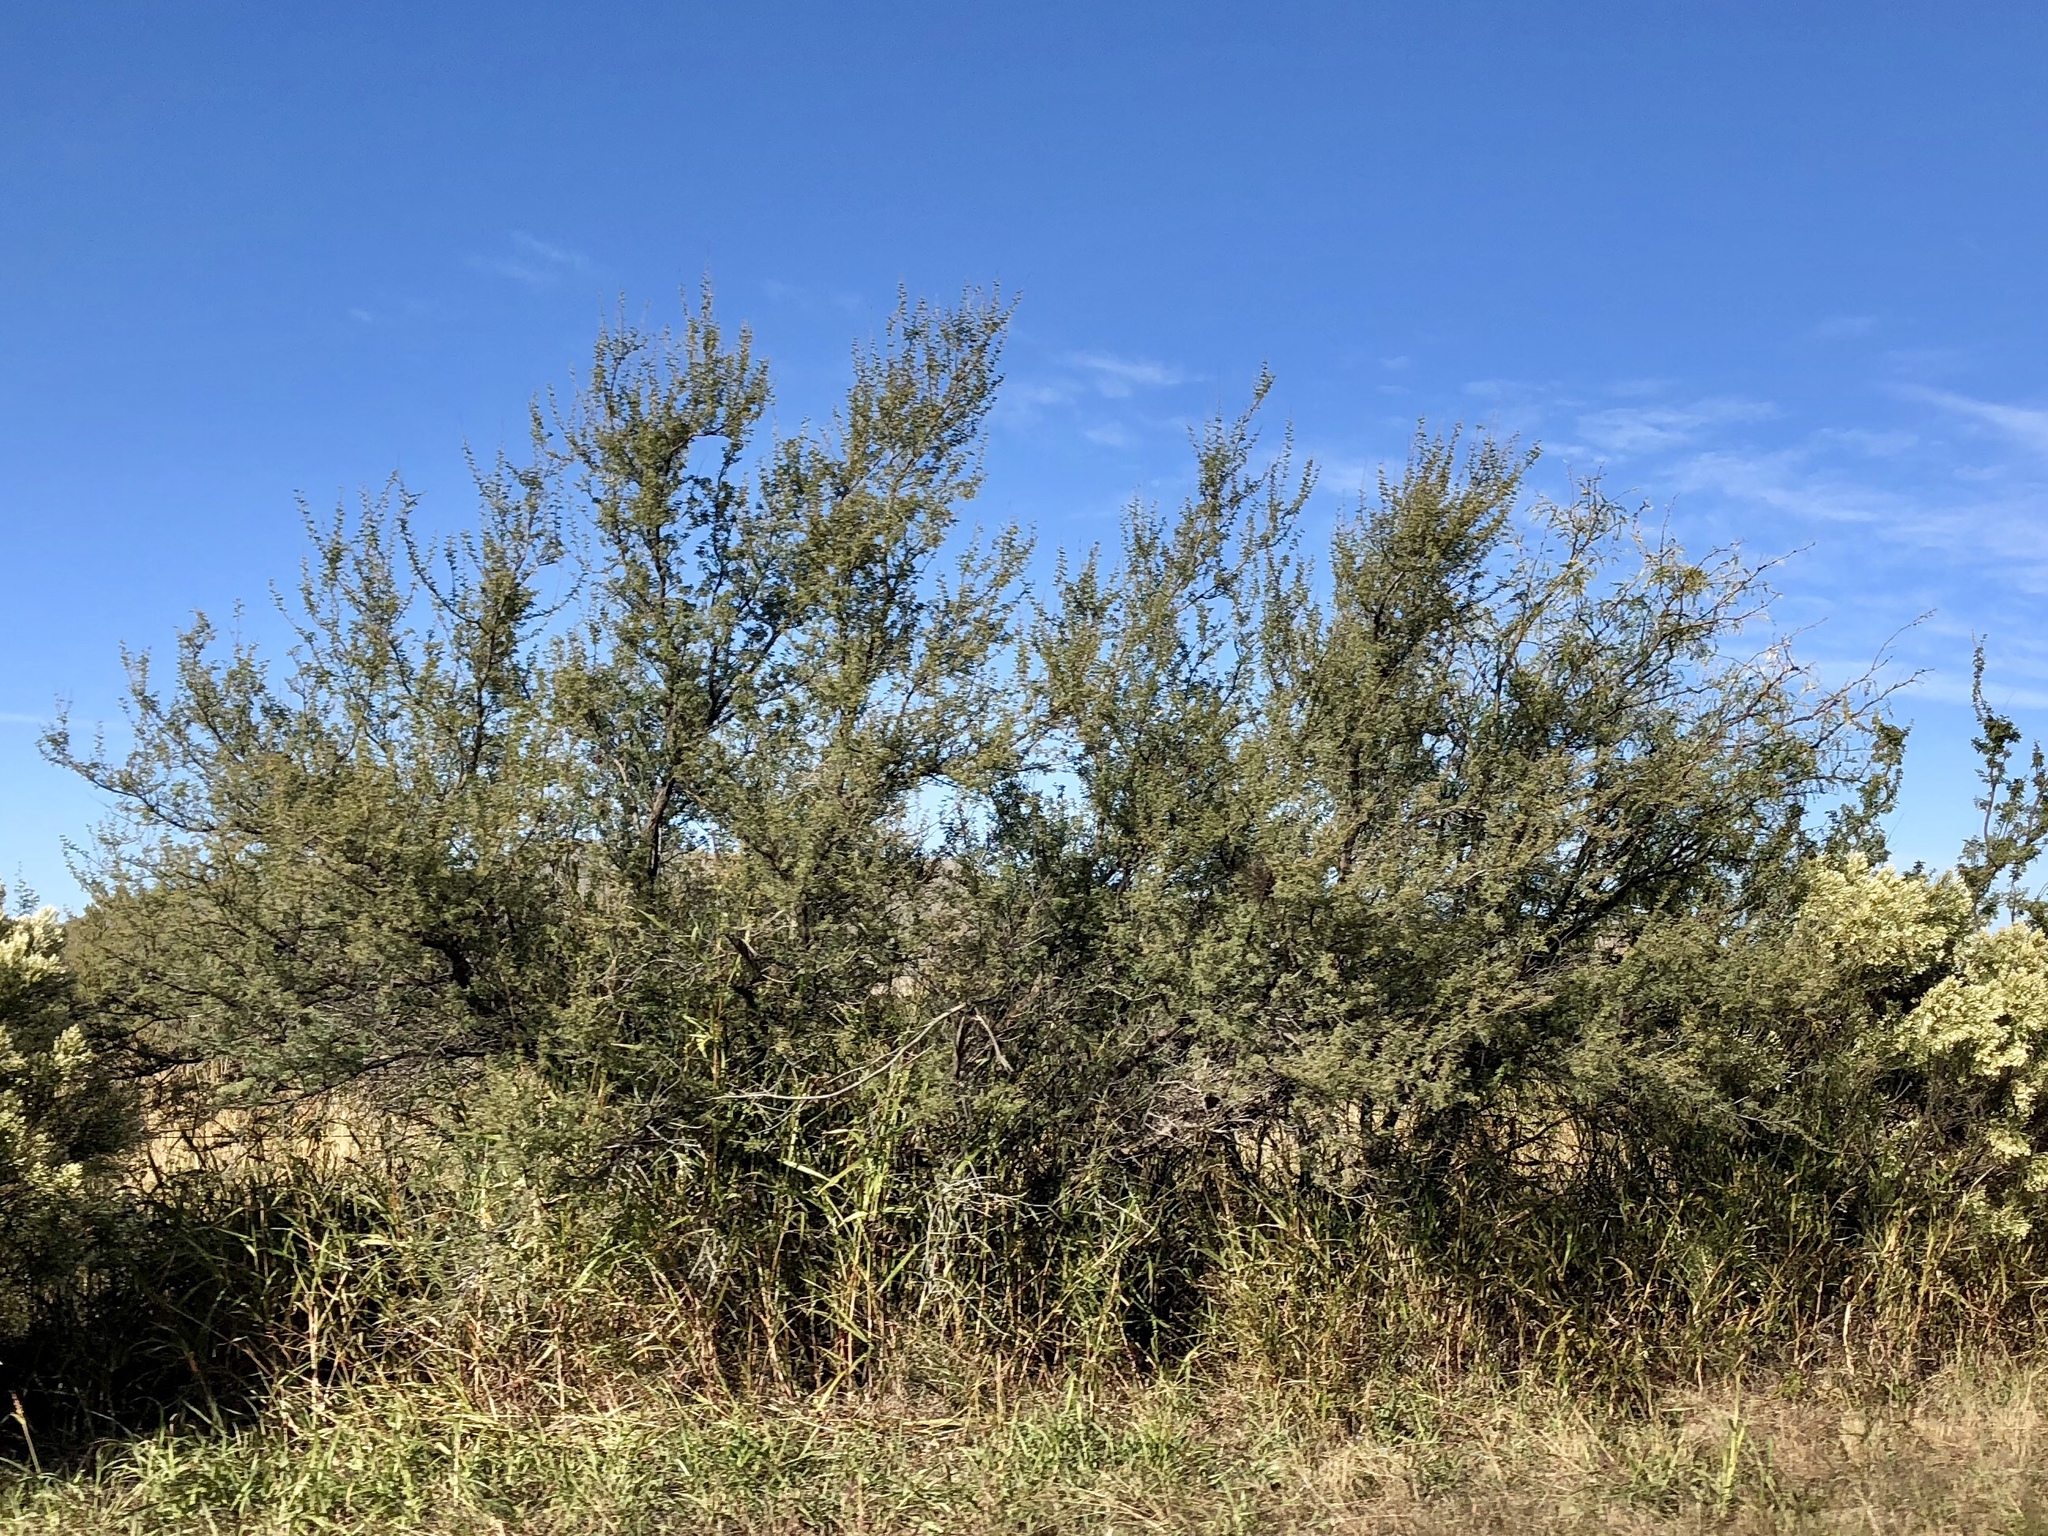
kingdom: Plantae
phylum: Tracheophyta
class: Magnoliopsida
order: Fabales
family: Fabaceae
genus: Prosopis
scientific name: Prosopis glandulosa
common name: Honey mesquite
